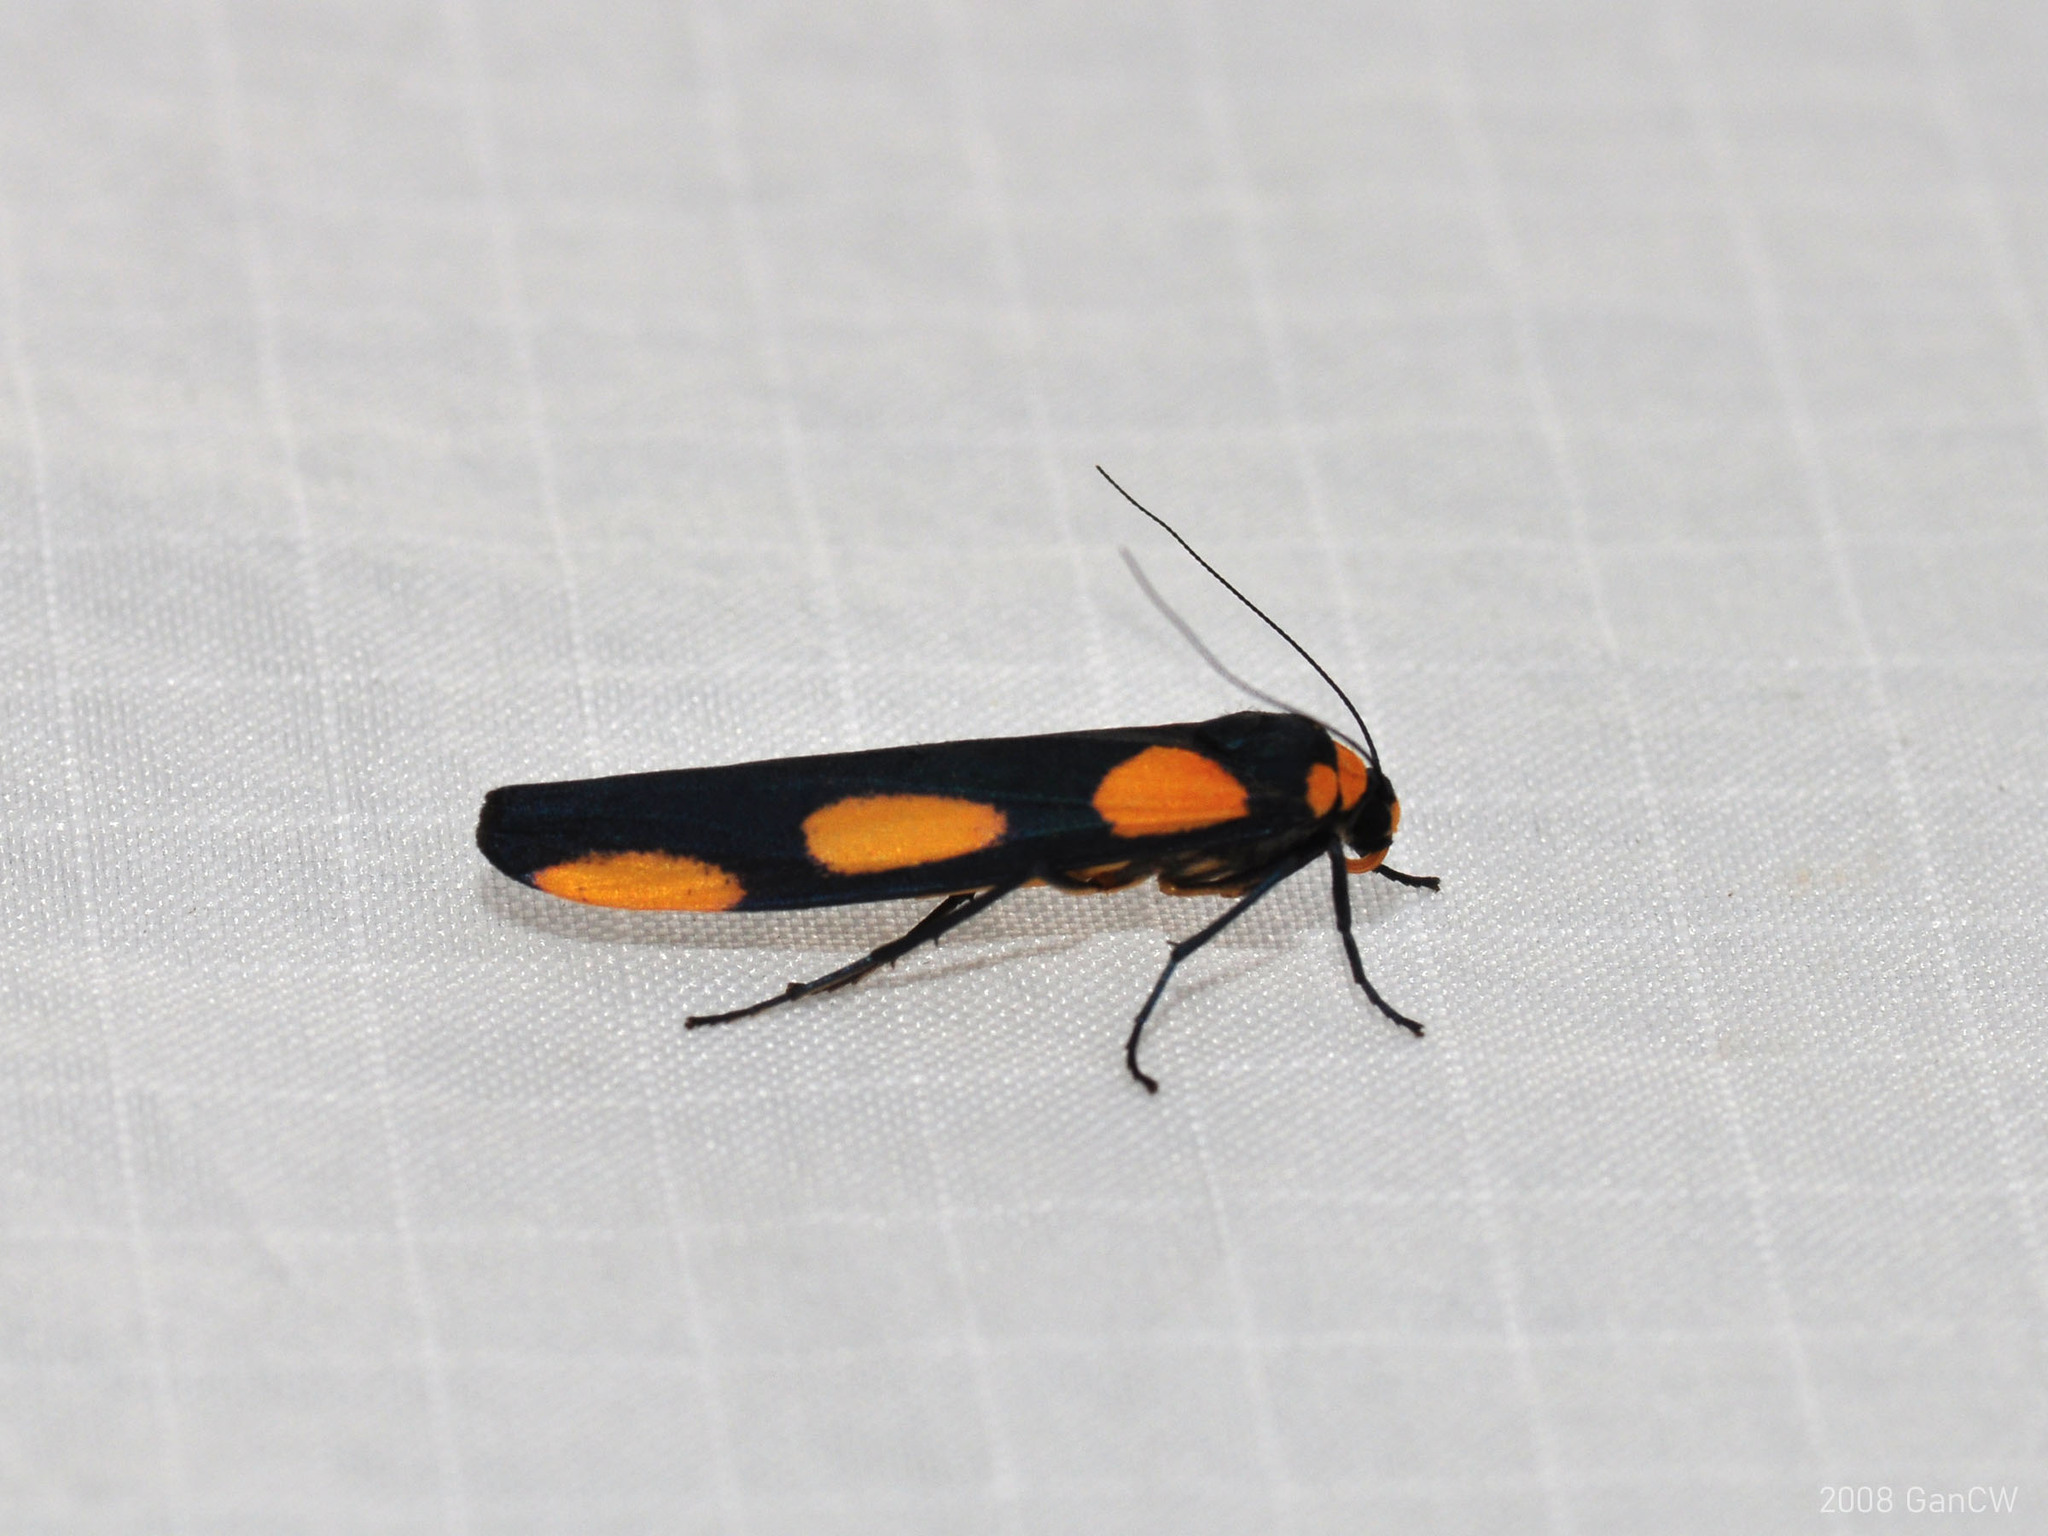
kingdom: Animalia
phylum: Arthropoda
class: Insecta
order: Lepidoptera
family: Erebidae
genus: Monosyntaxis
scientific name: Monosyntaxis holmanhunti
